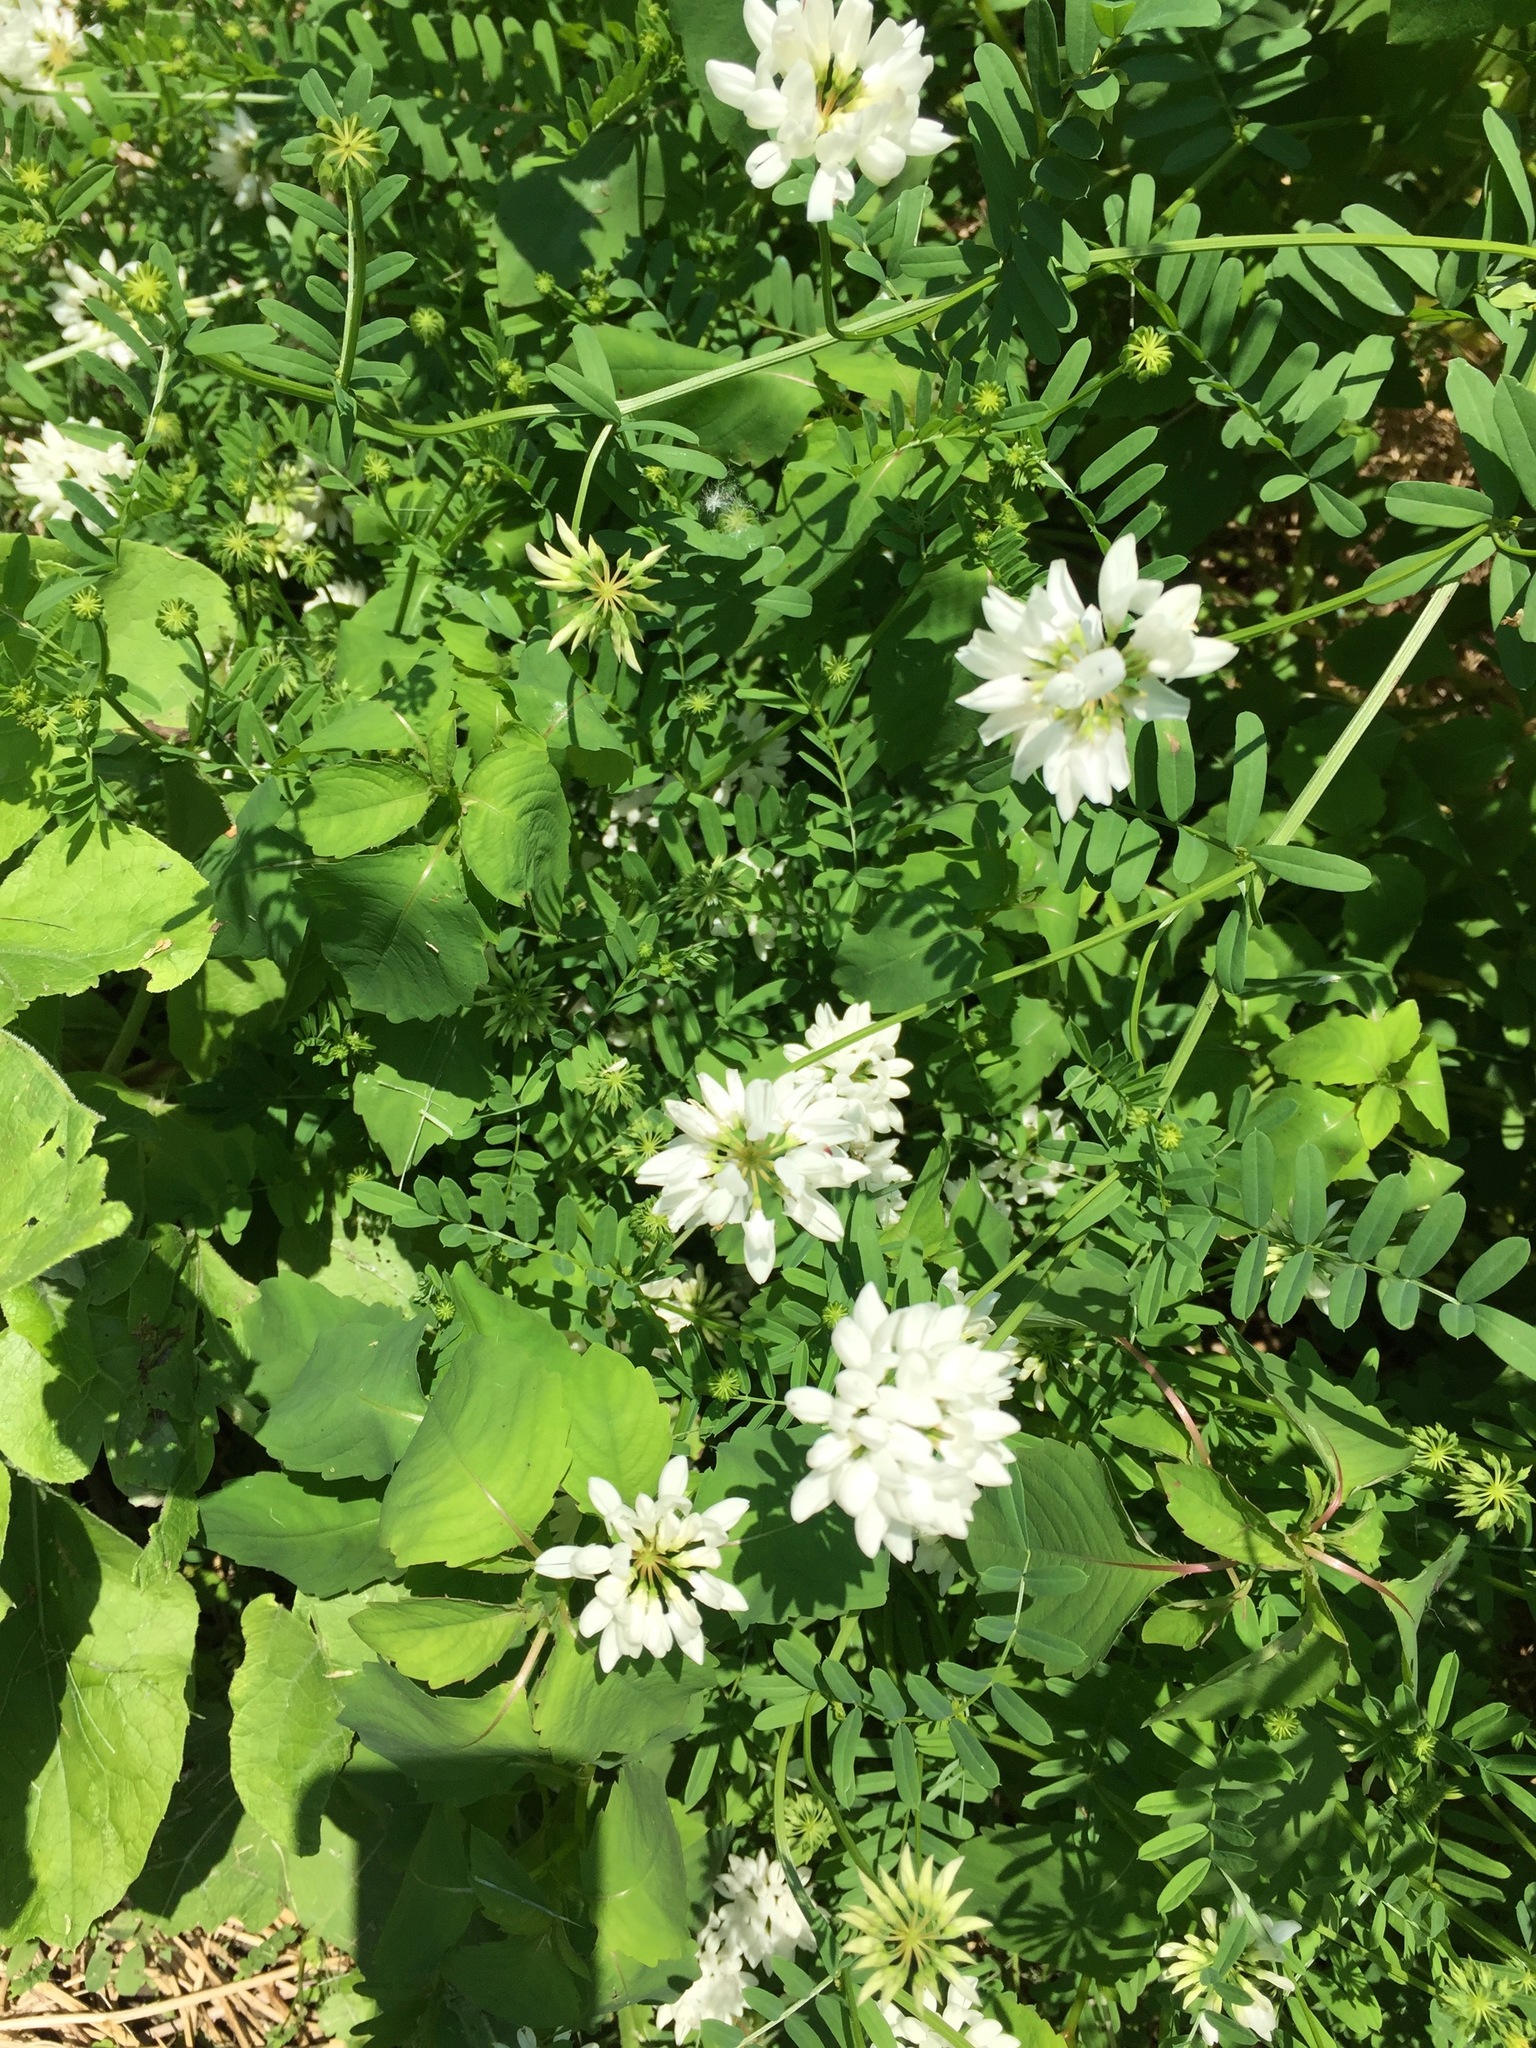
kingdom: Plantae
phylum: Tracheophyta
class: Magnoliopsida
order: Fabales
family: Fabaceae
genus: Coronilla
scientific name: Coronilla varia
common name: Crownvetch
